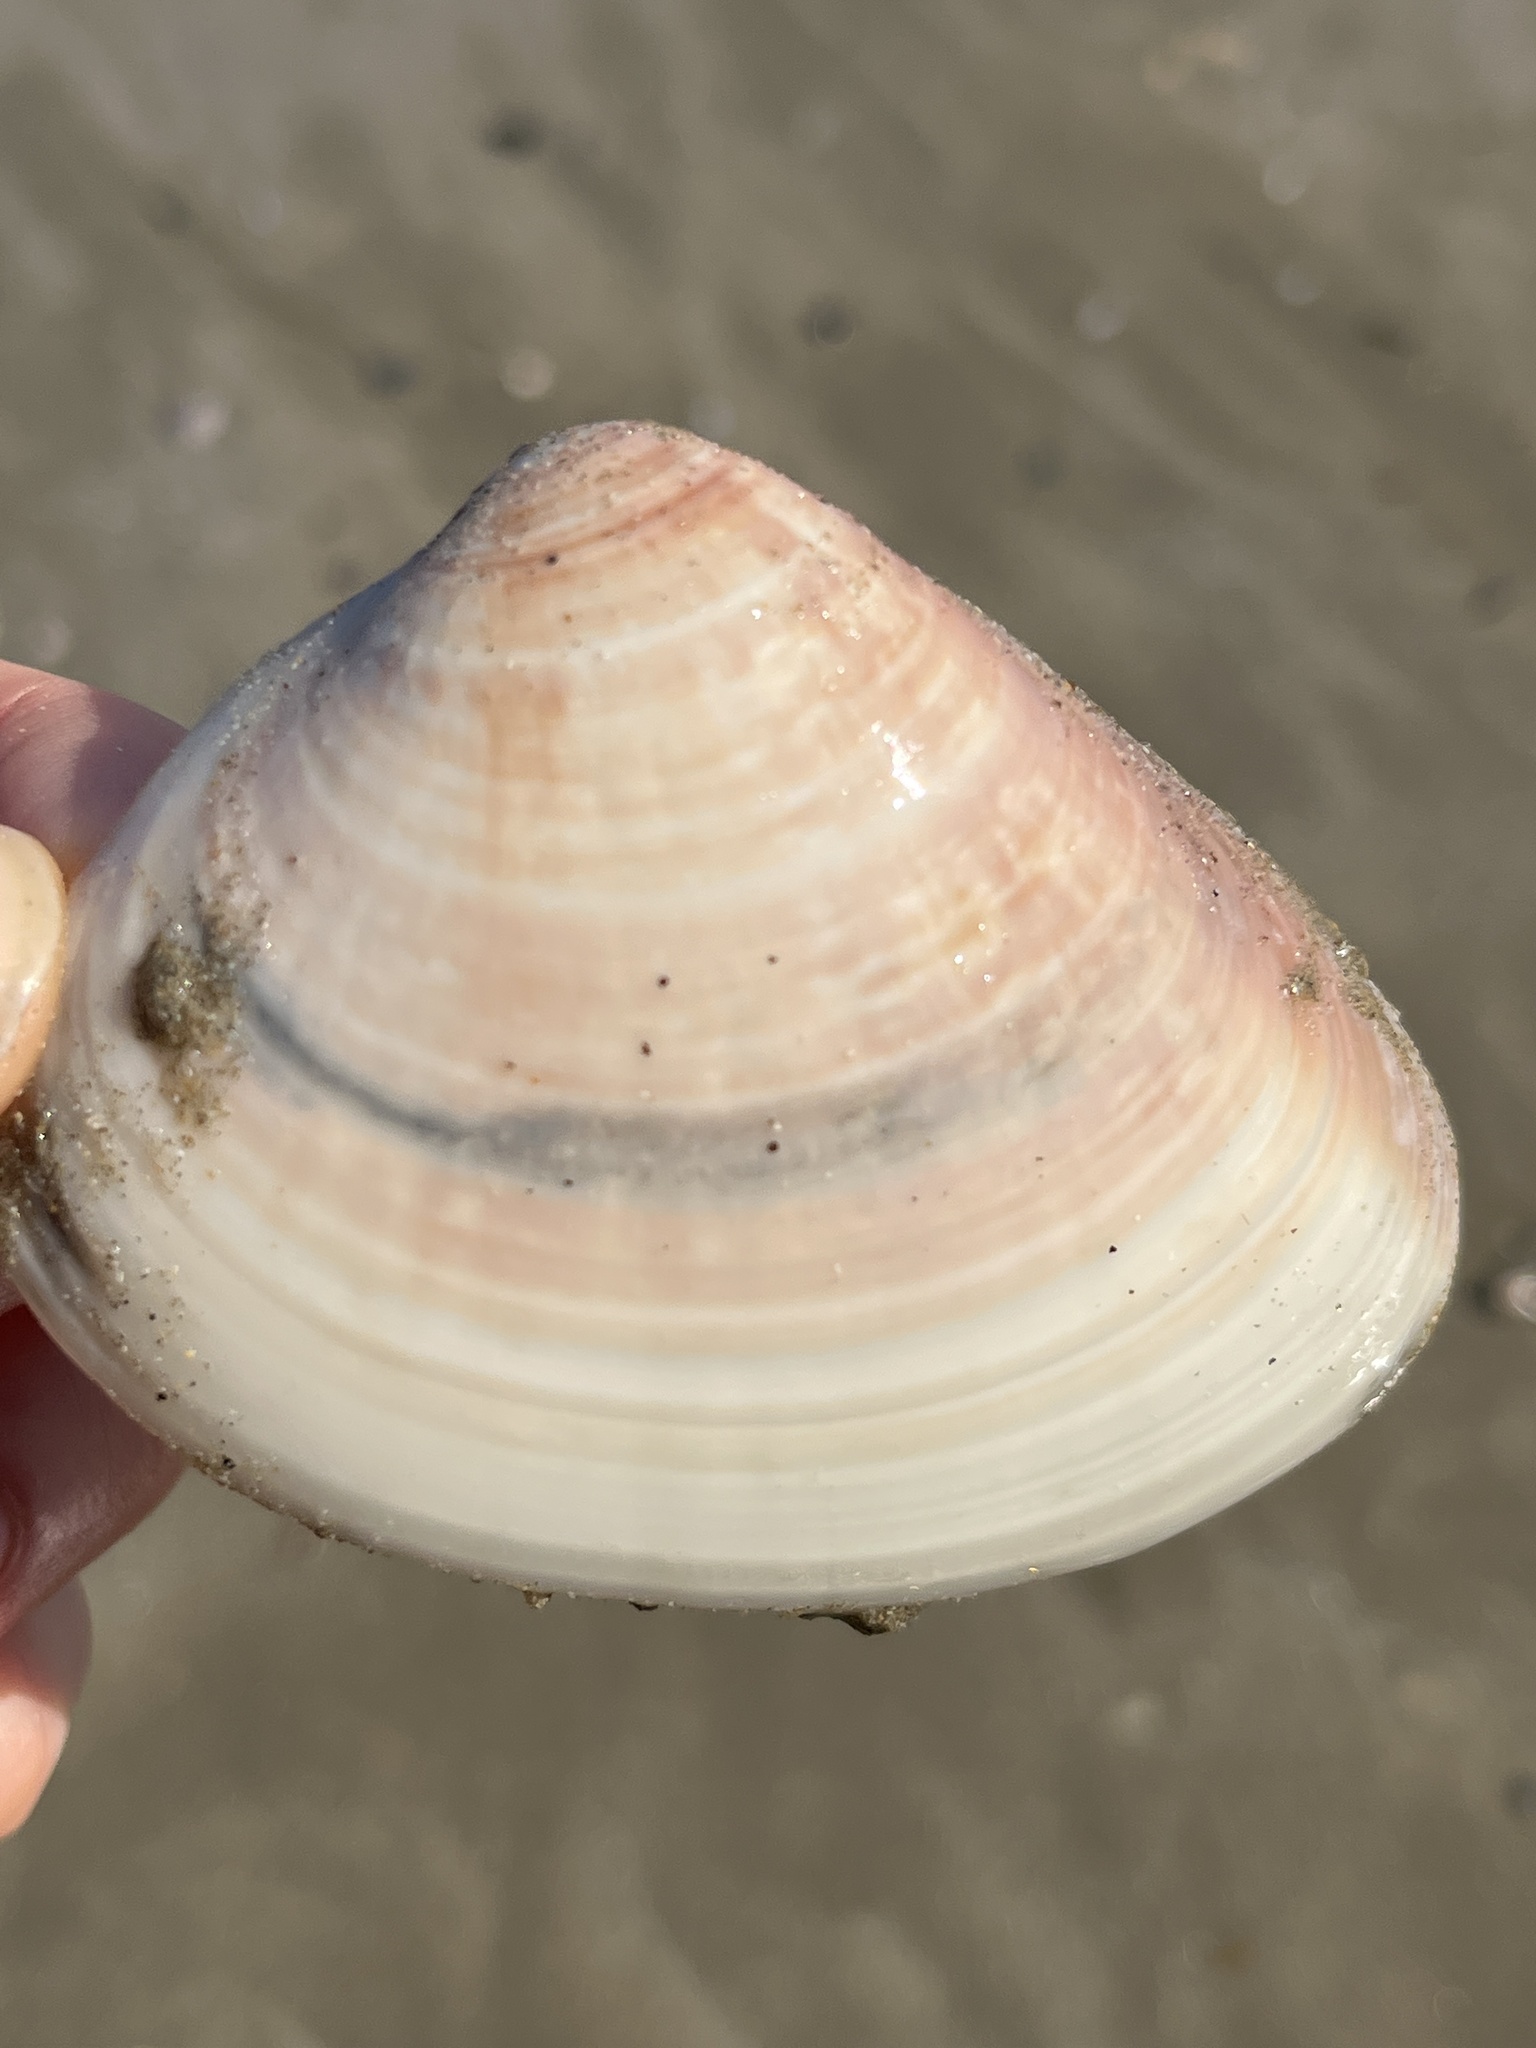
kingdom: Animalia
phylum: Mollusca
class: Bivalvia
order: Venerida
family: Veneridae
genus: Meretrix
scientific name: Meretrix lamarckii
